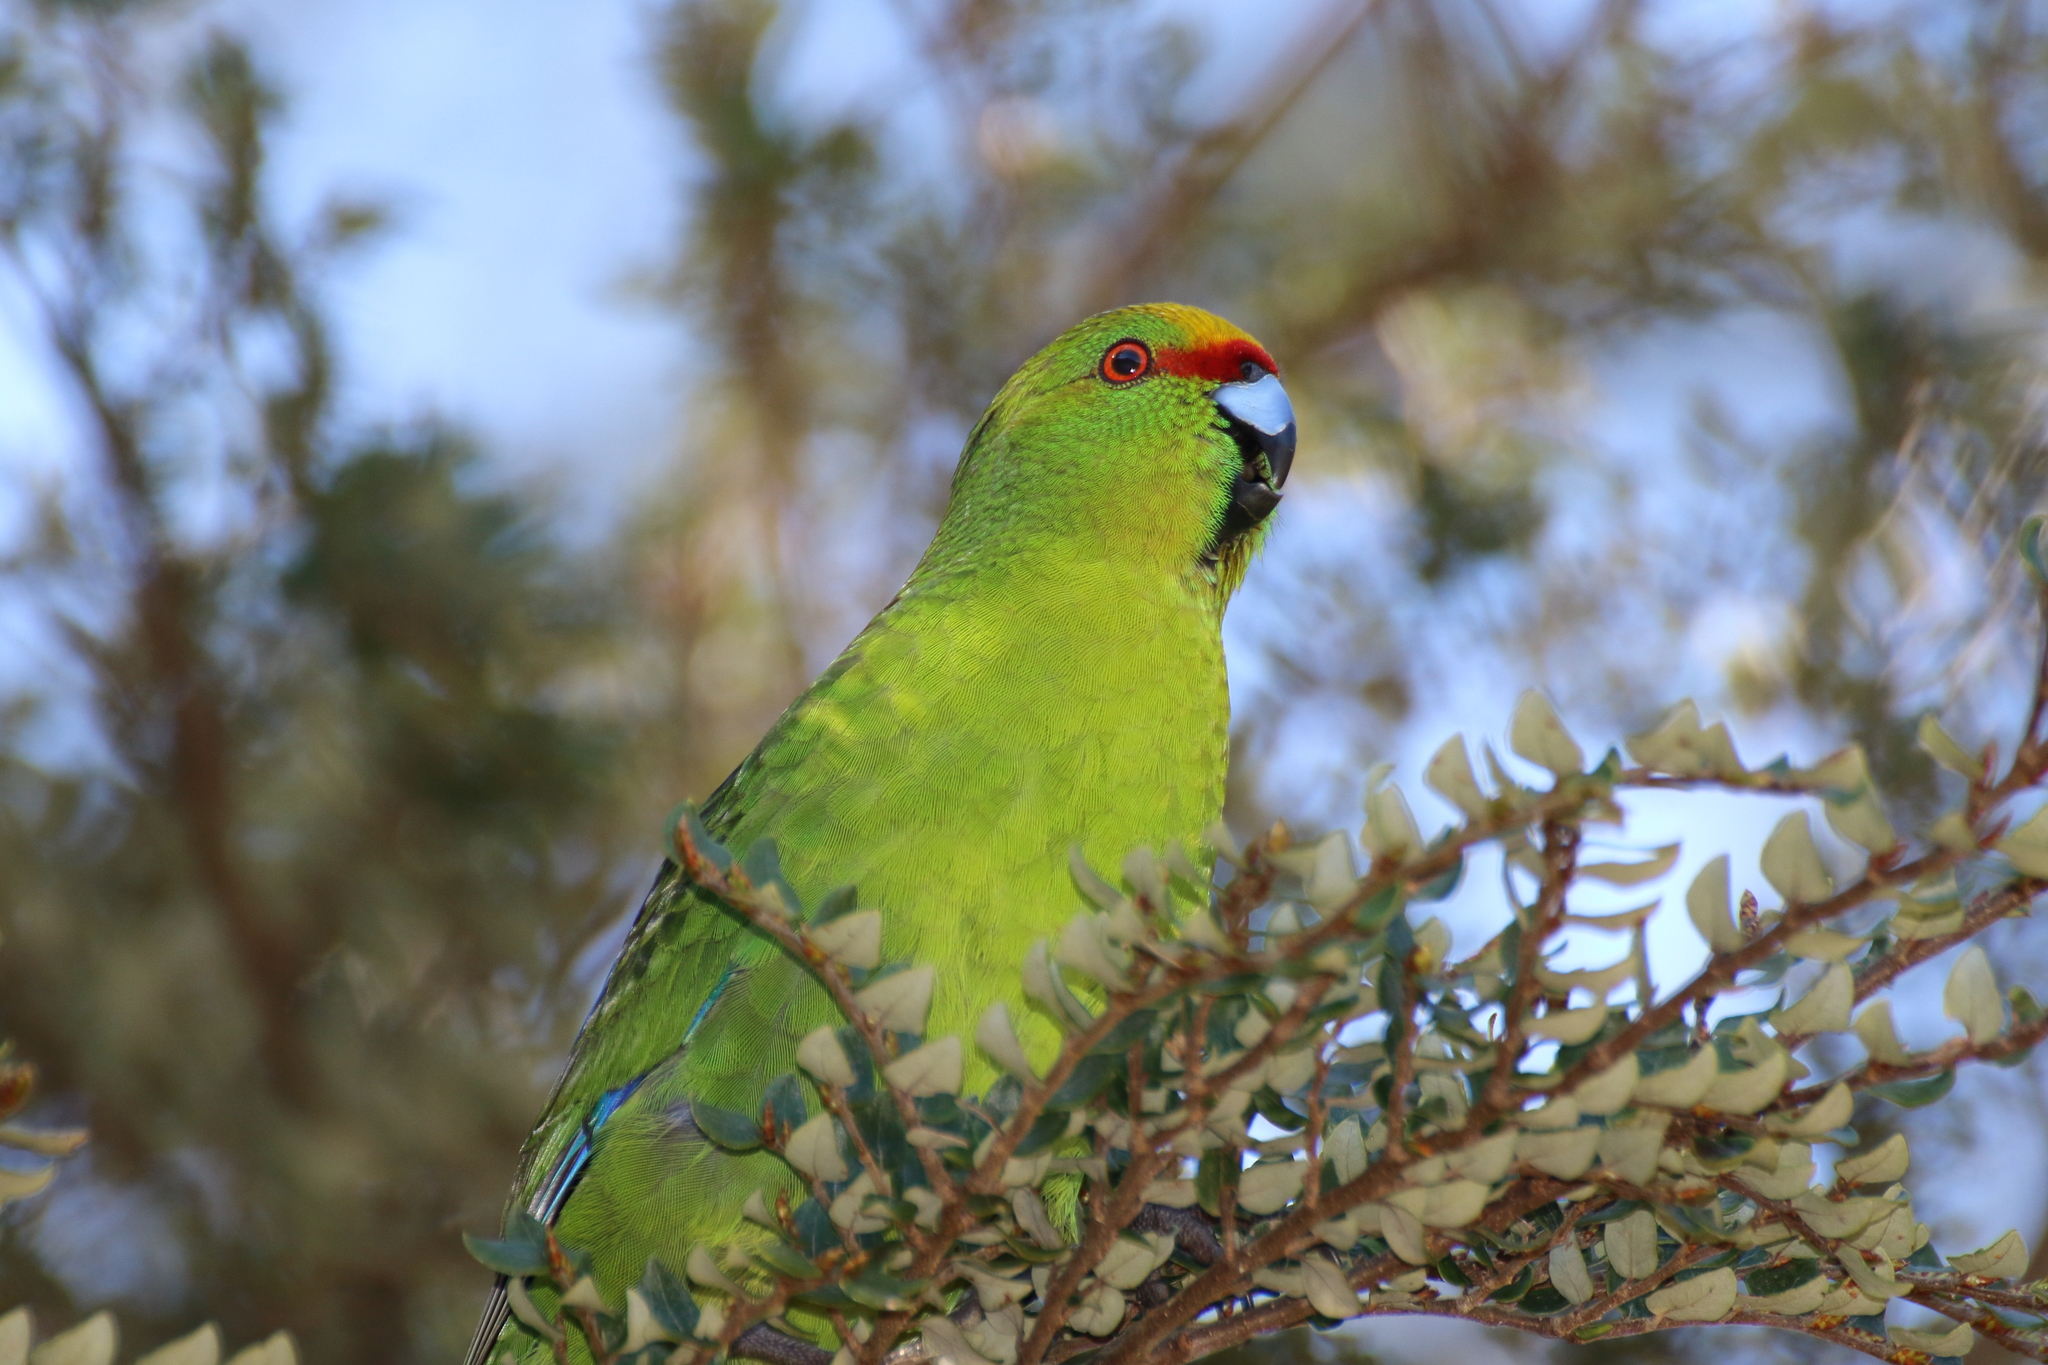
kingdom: Animalia
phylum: Chordata
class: Aves
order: Psittaciformes
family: Psittacidae
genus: Cyanoramphus
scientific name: Cyanoramphus auriceps
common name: Yellow-crowned parakeet
